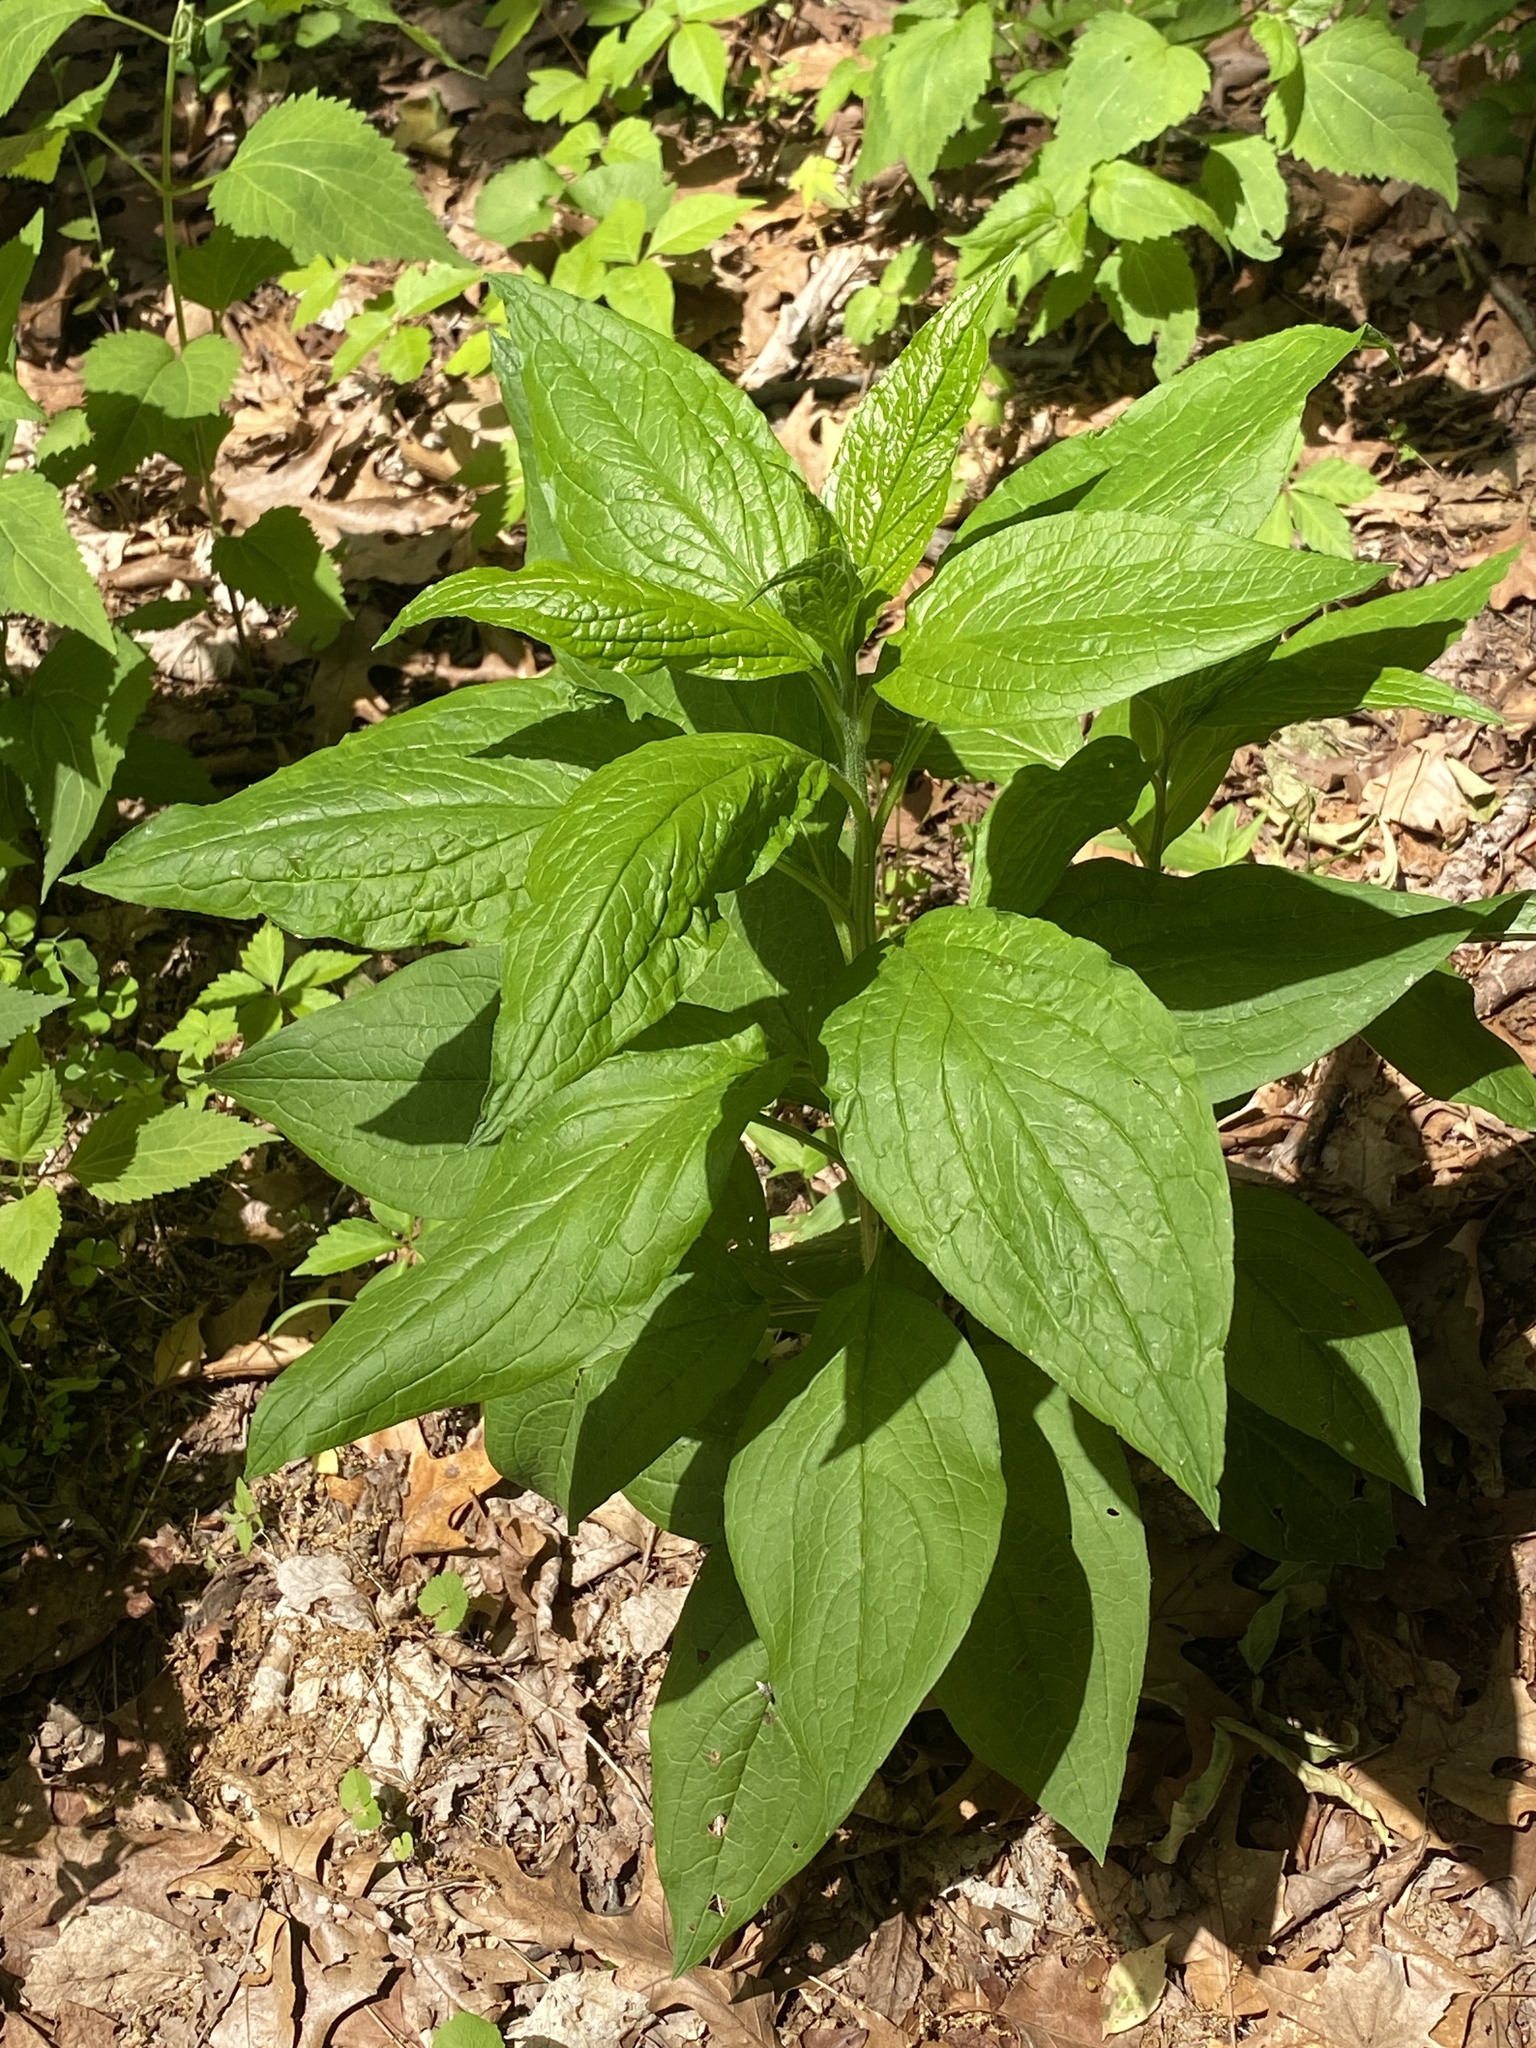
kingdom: Plantae
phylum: Tracheophyta
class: Magnoliopsida
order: Boraginales
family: Boraginaceae
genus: Hackelia
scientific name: Hackelia virginiana
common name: Beggar's-lice
